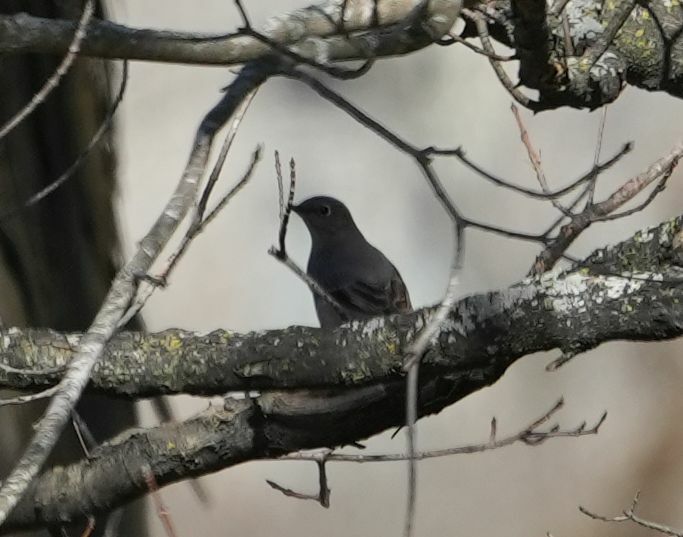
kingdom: Animalia
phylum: Chordata
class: Aves
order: Passeriformes
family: Turdidae
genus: Myadestes
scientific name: Myadestes townsendi
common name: Townsend's solitaire
